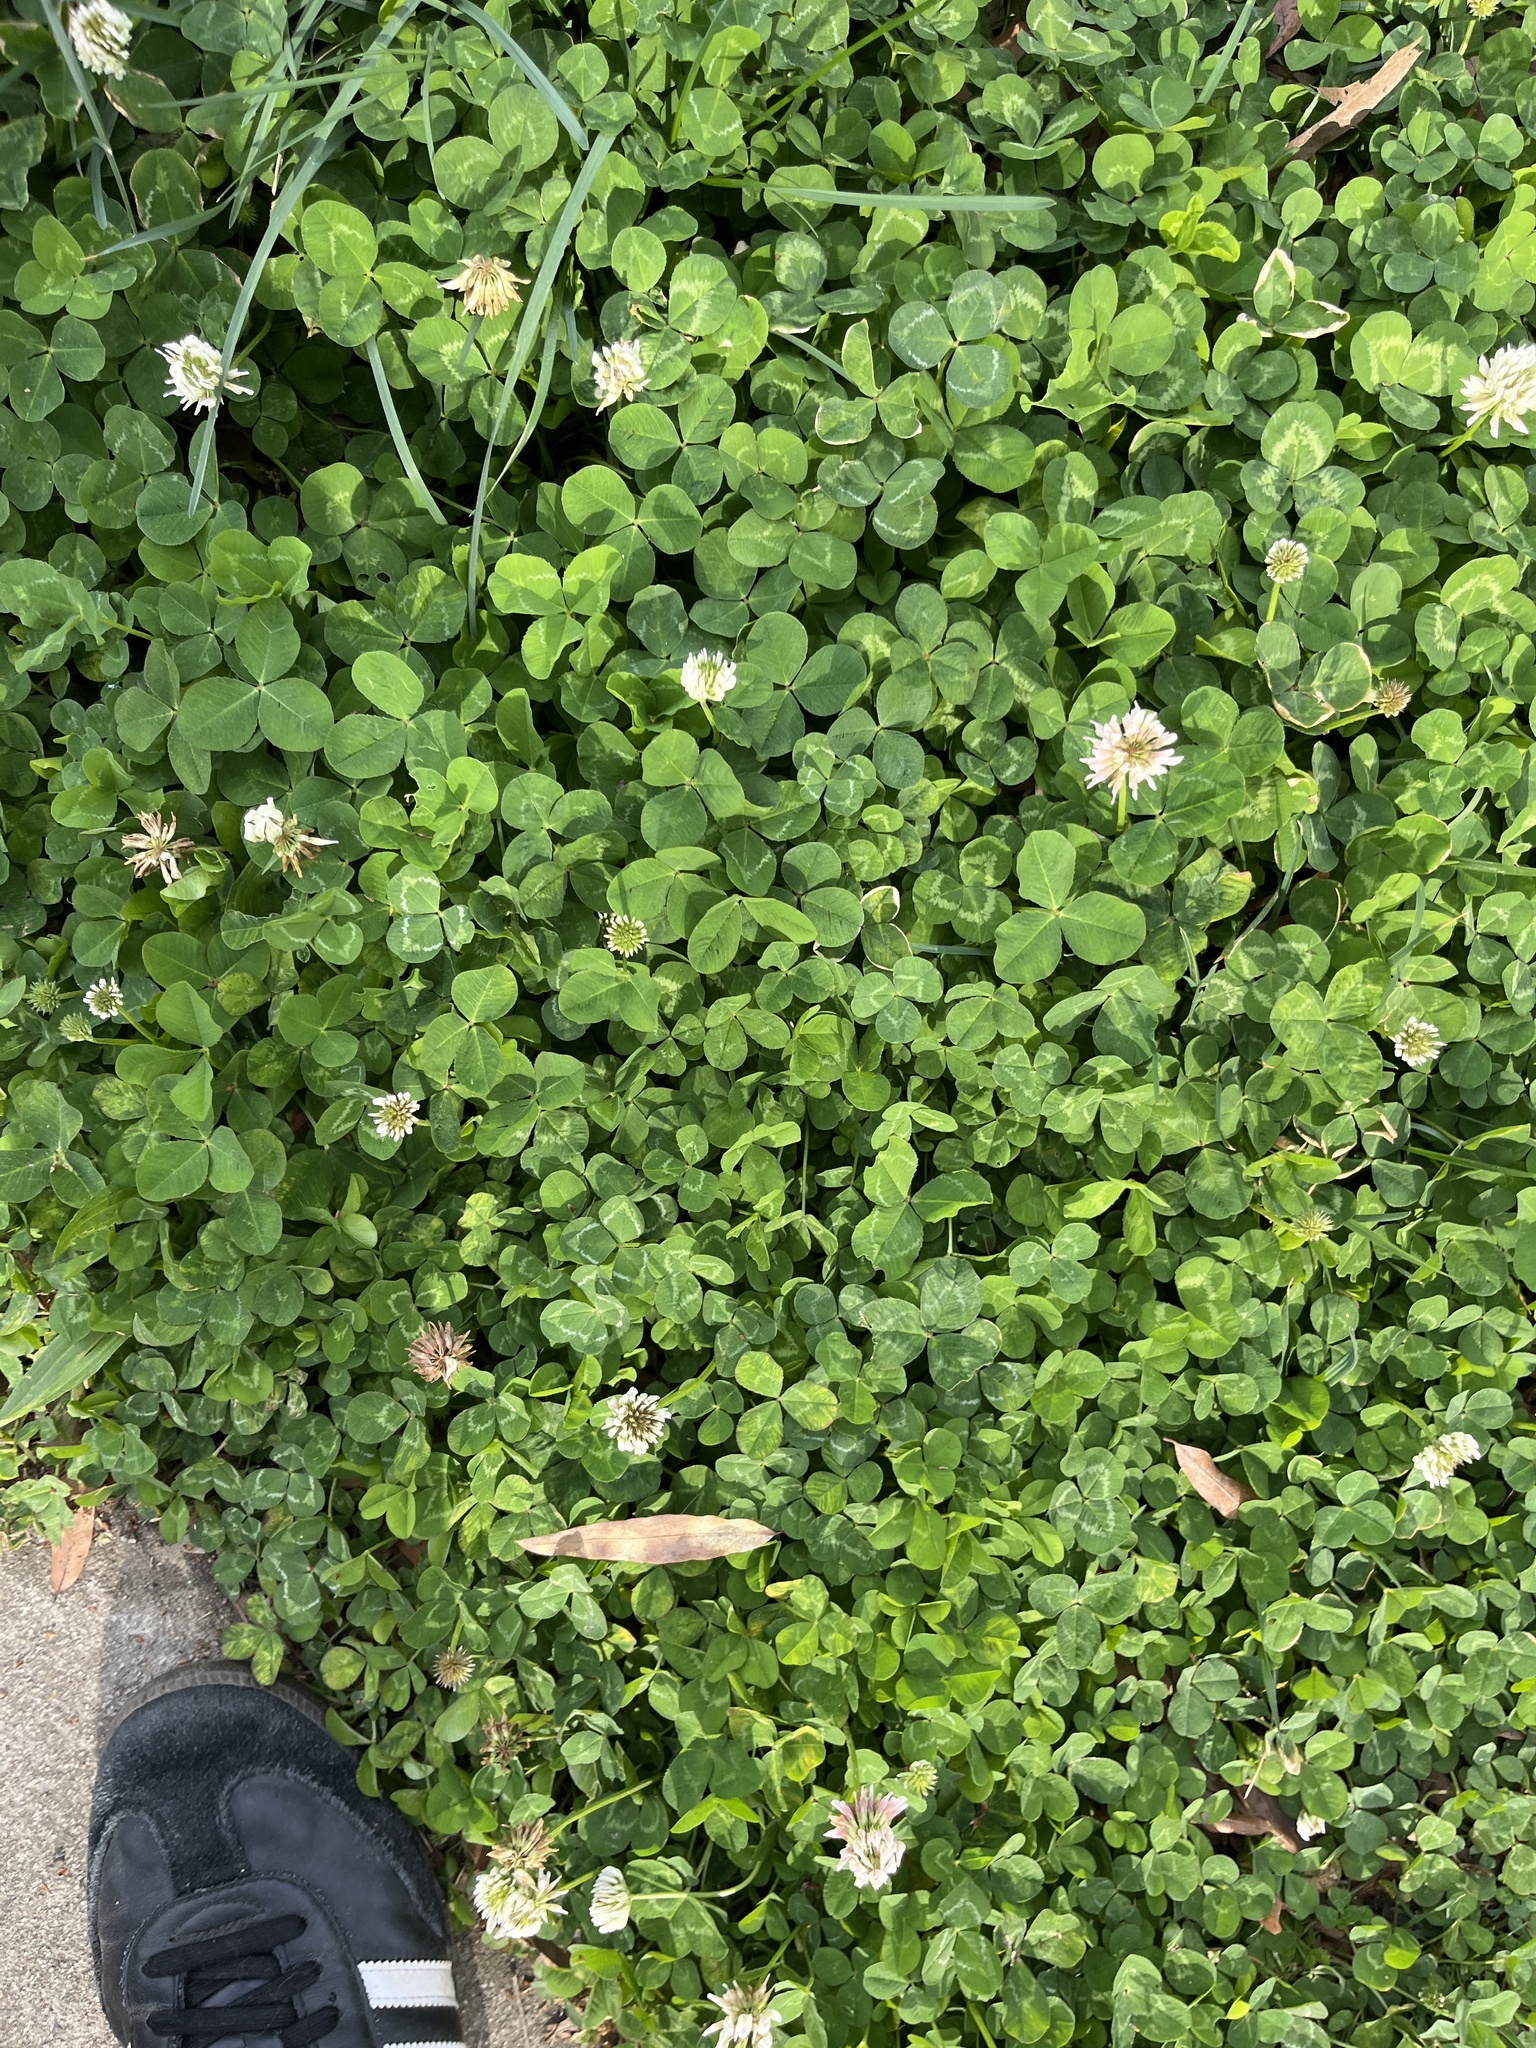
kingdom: Plantae
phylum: Tracheophyta
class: Magnoliopsida
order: Fabales
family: Fabaceae
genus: Trifolium
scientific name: Trifolium repens
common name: White clover
